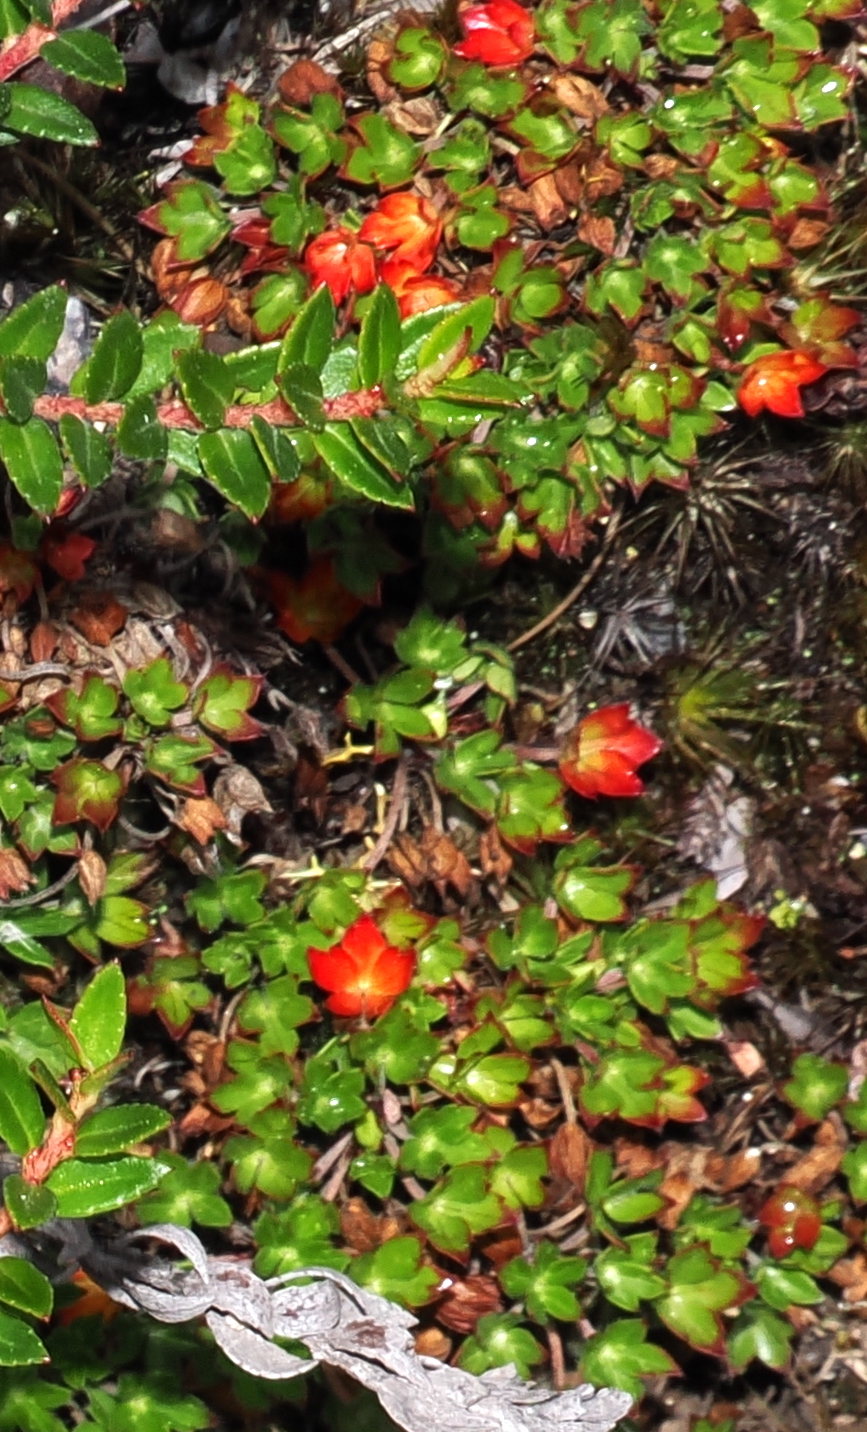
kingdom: Plantae
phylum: Tracheophyta
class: Magnoliopsida
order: Geraniales
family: Geraniaceae
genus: Geranium
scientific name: Geranium sibbaldioides
